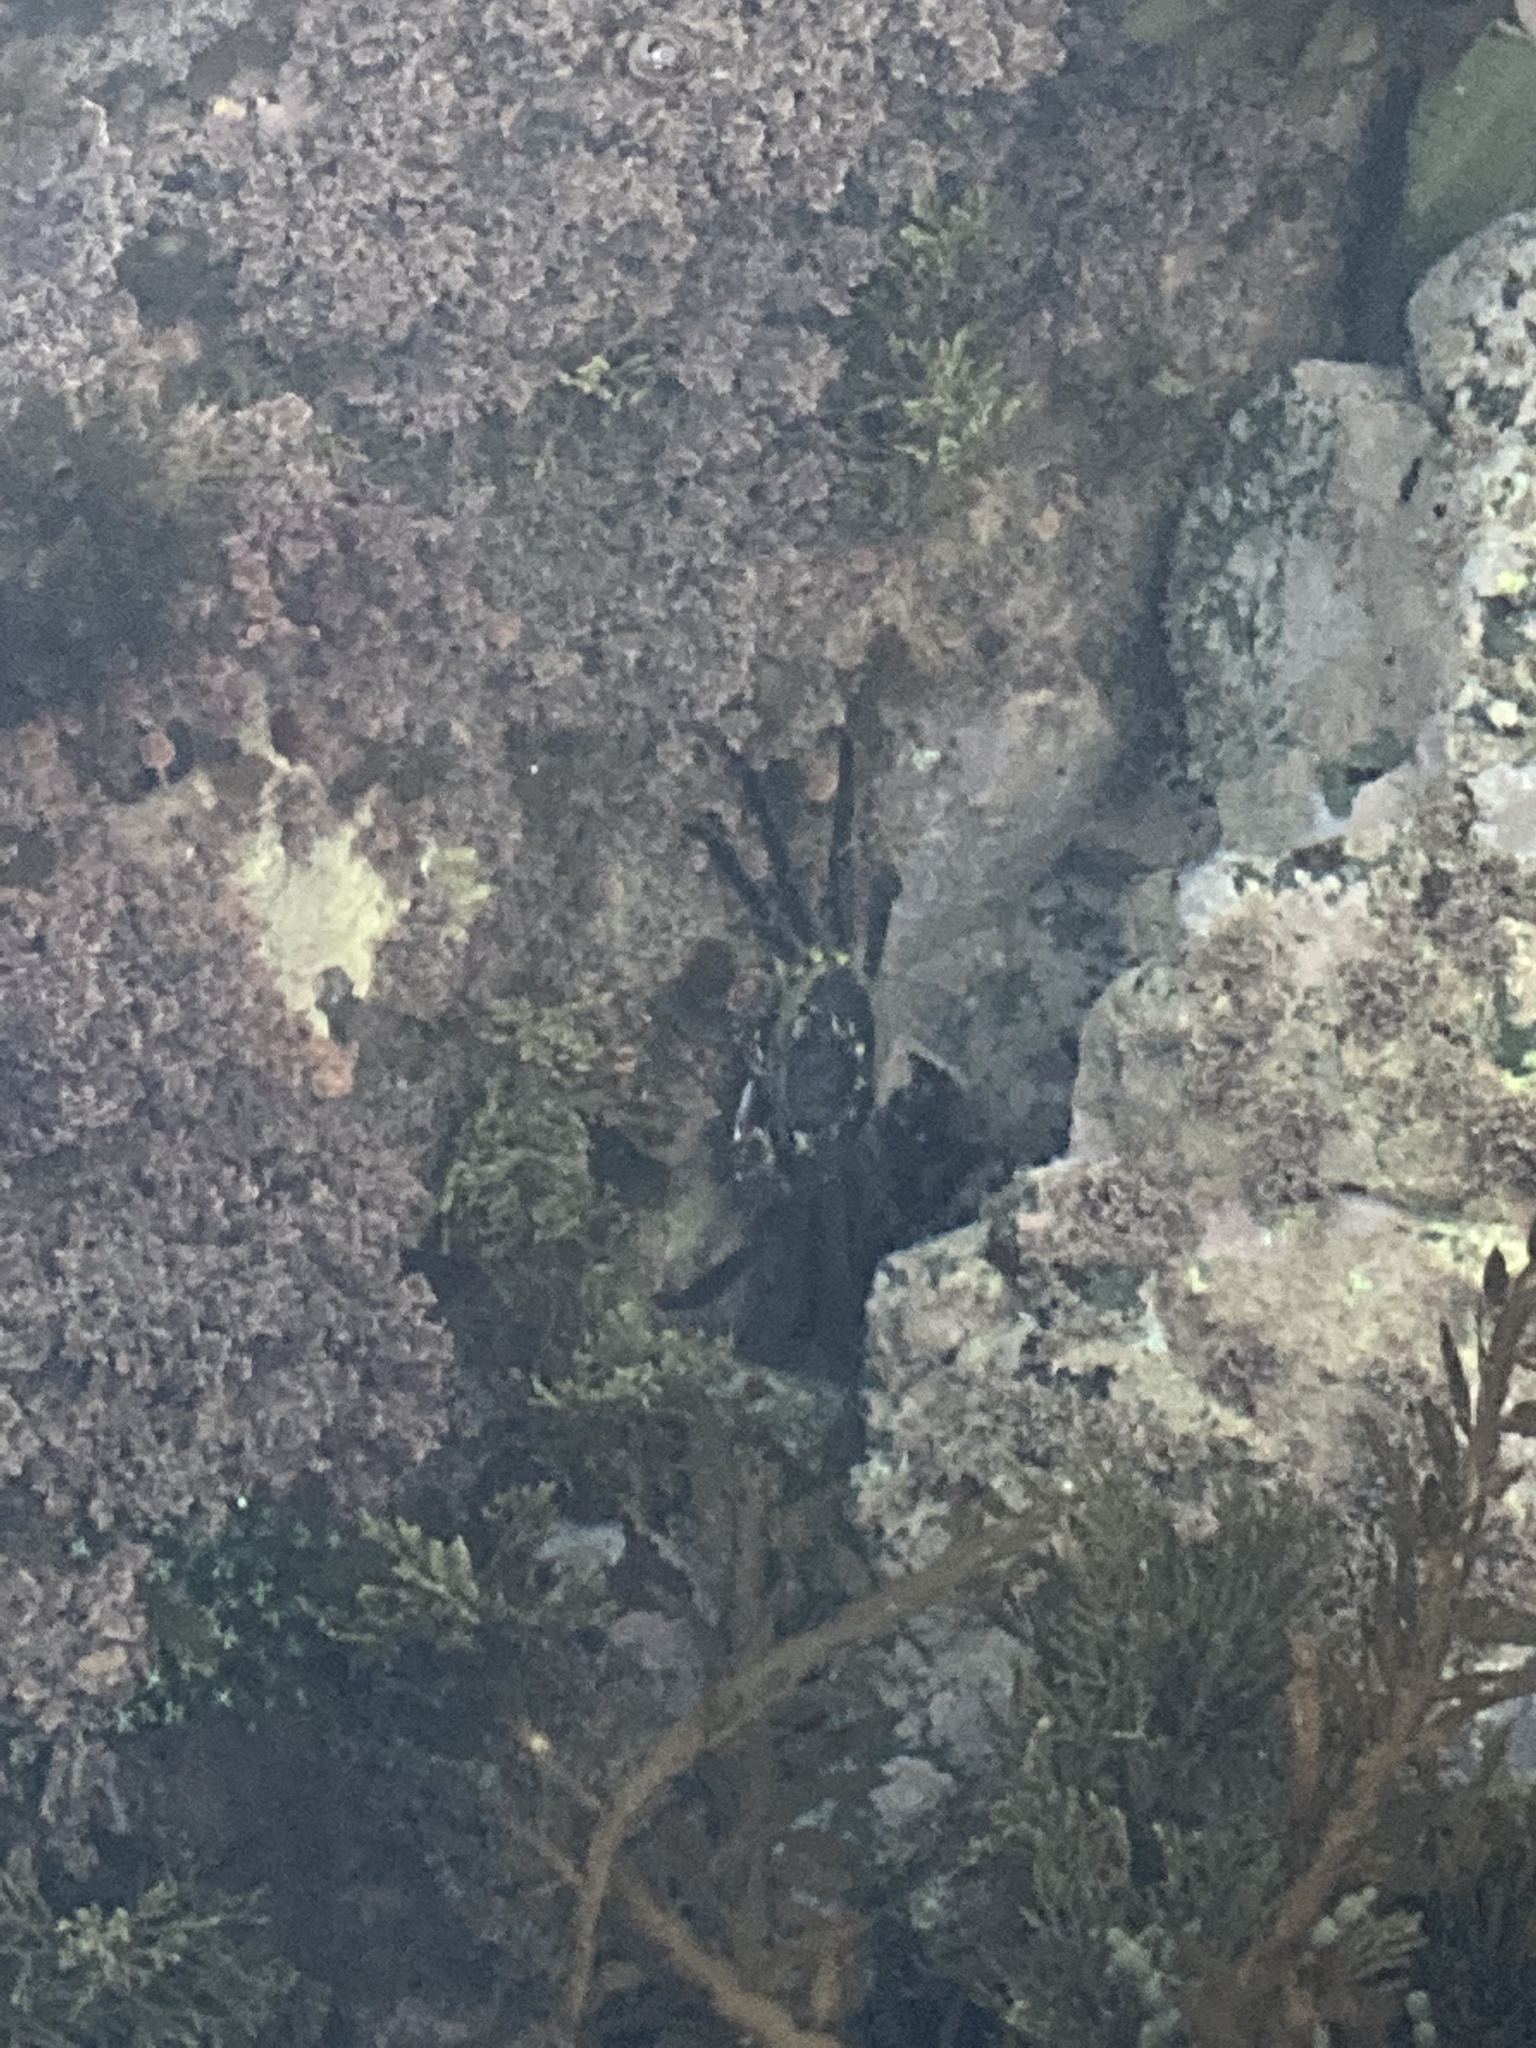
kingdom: Animalia
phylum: Arthropoda
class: Malacostraca
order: Decapoda
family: Grapsidae
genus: Leptograpsus
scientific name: Leptograpsus variegatus
